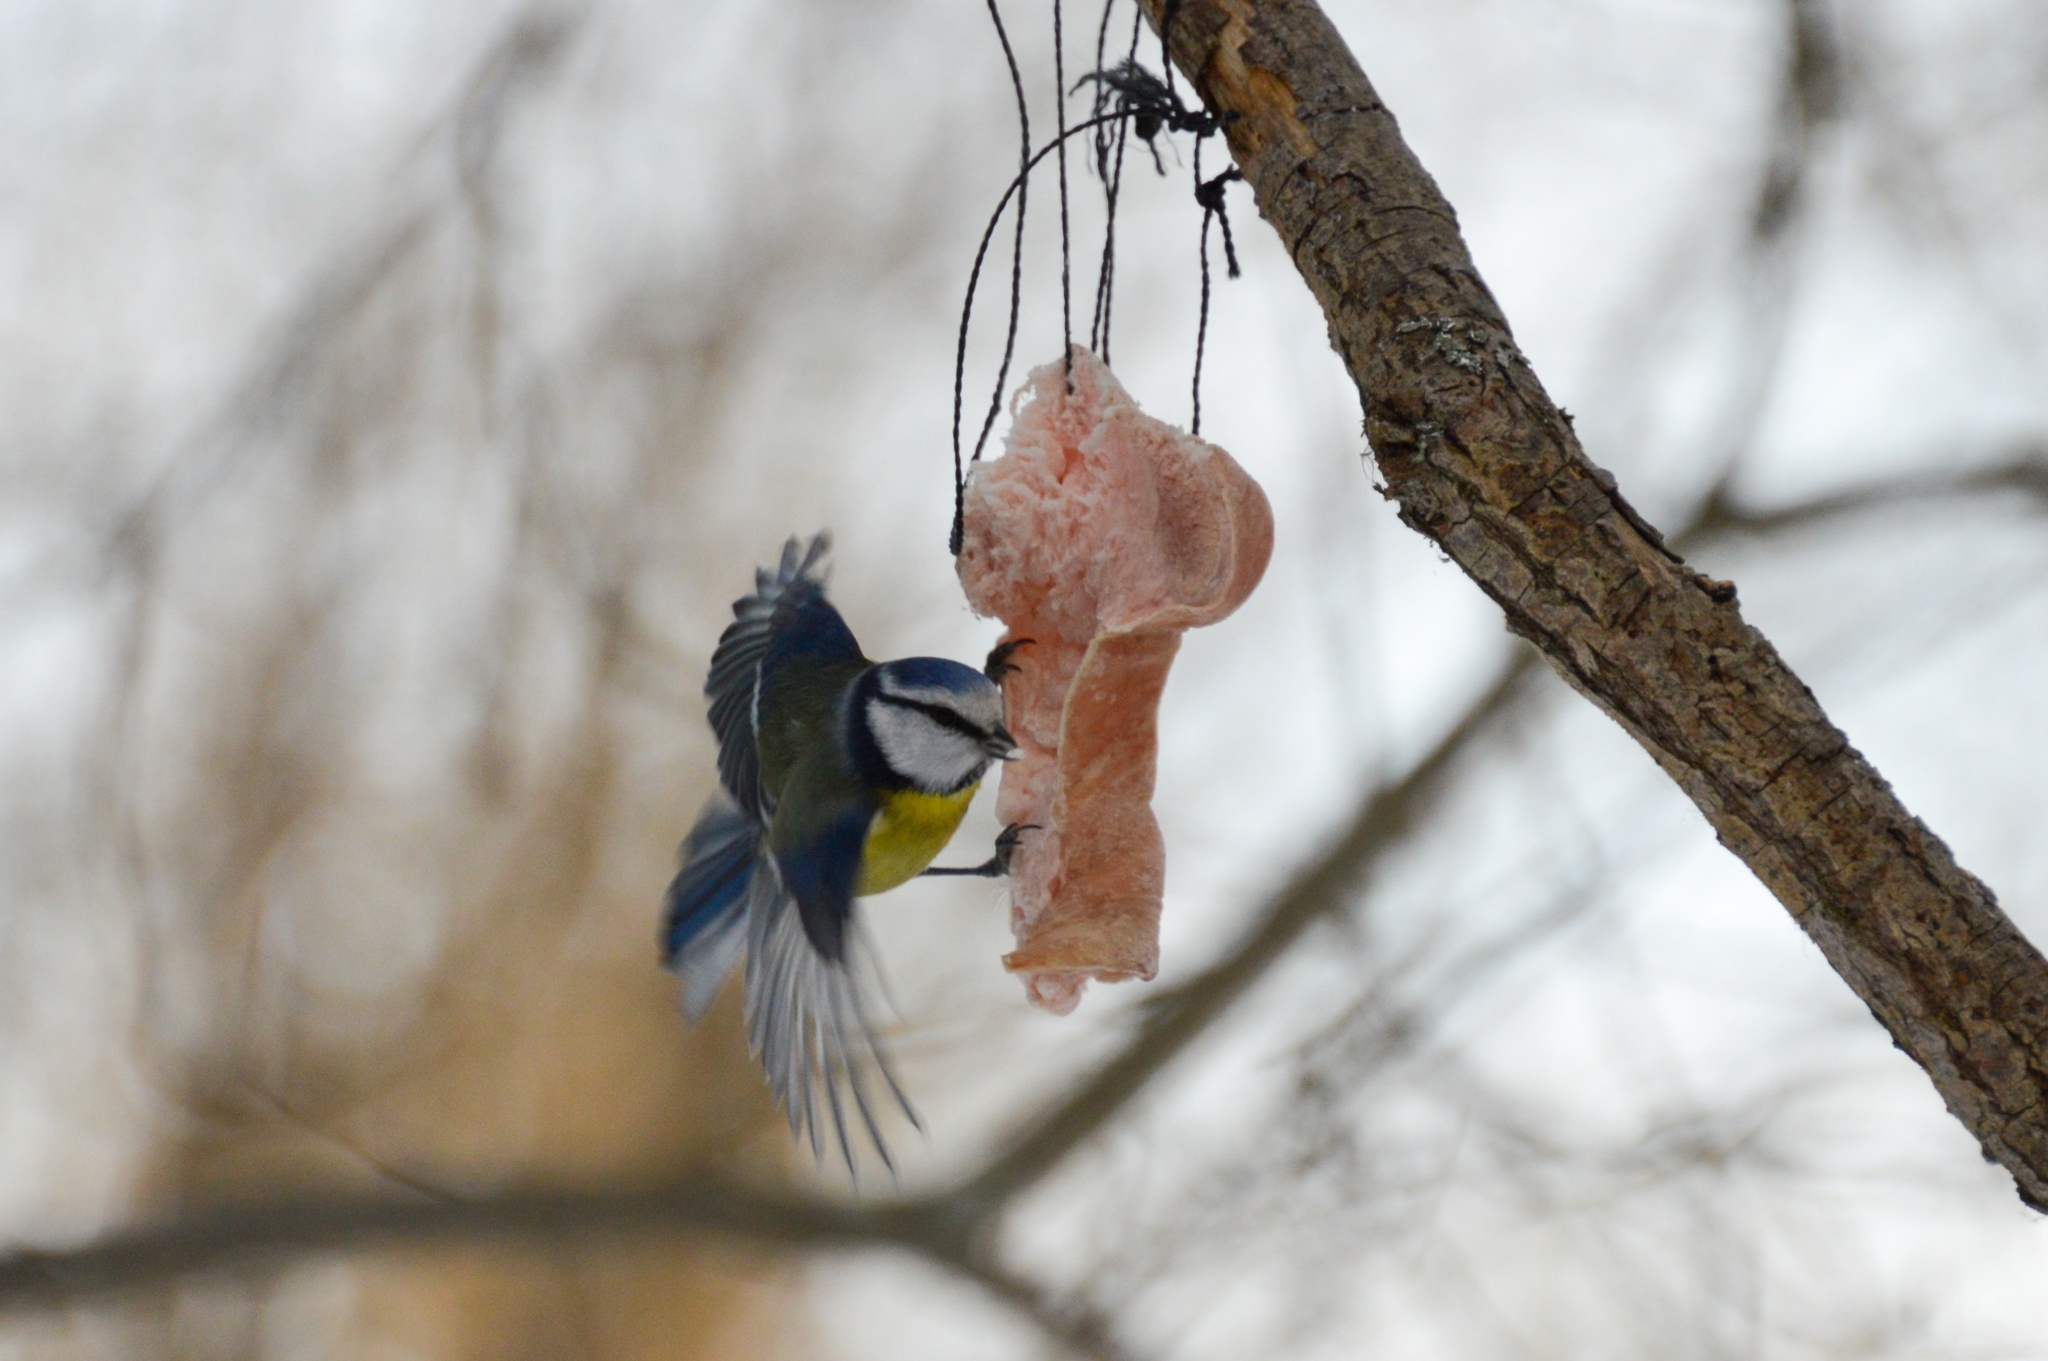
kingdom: Animalia
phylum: Chordata
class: Aves
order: Passeriformes
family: Paridae
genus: Cyanistes
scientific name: Cyanistes caeruleus
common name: Eurasian blue tit
